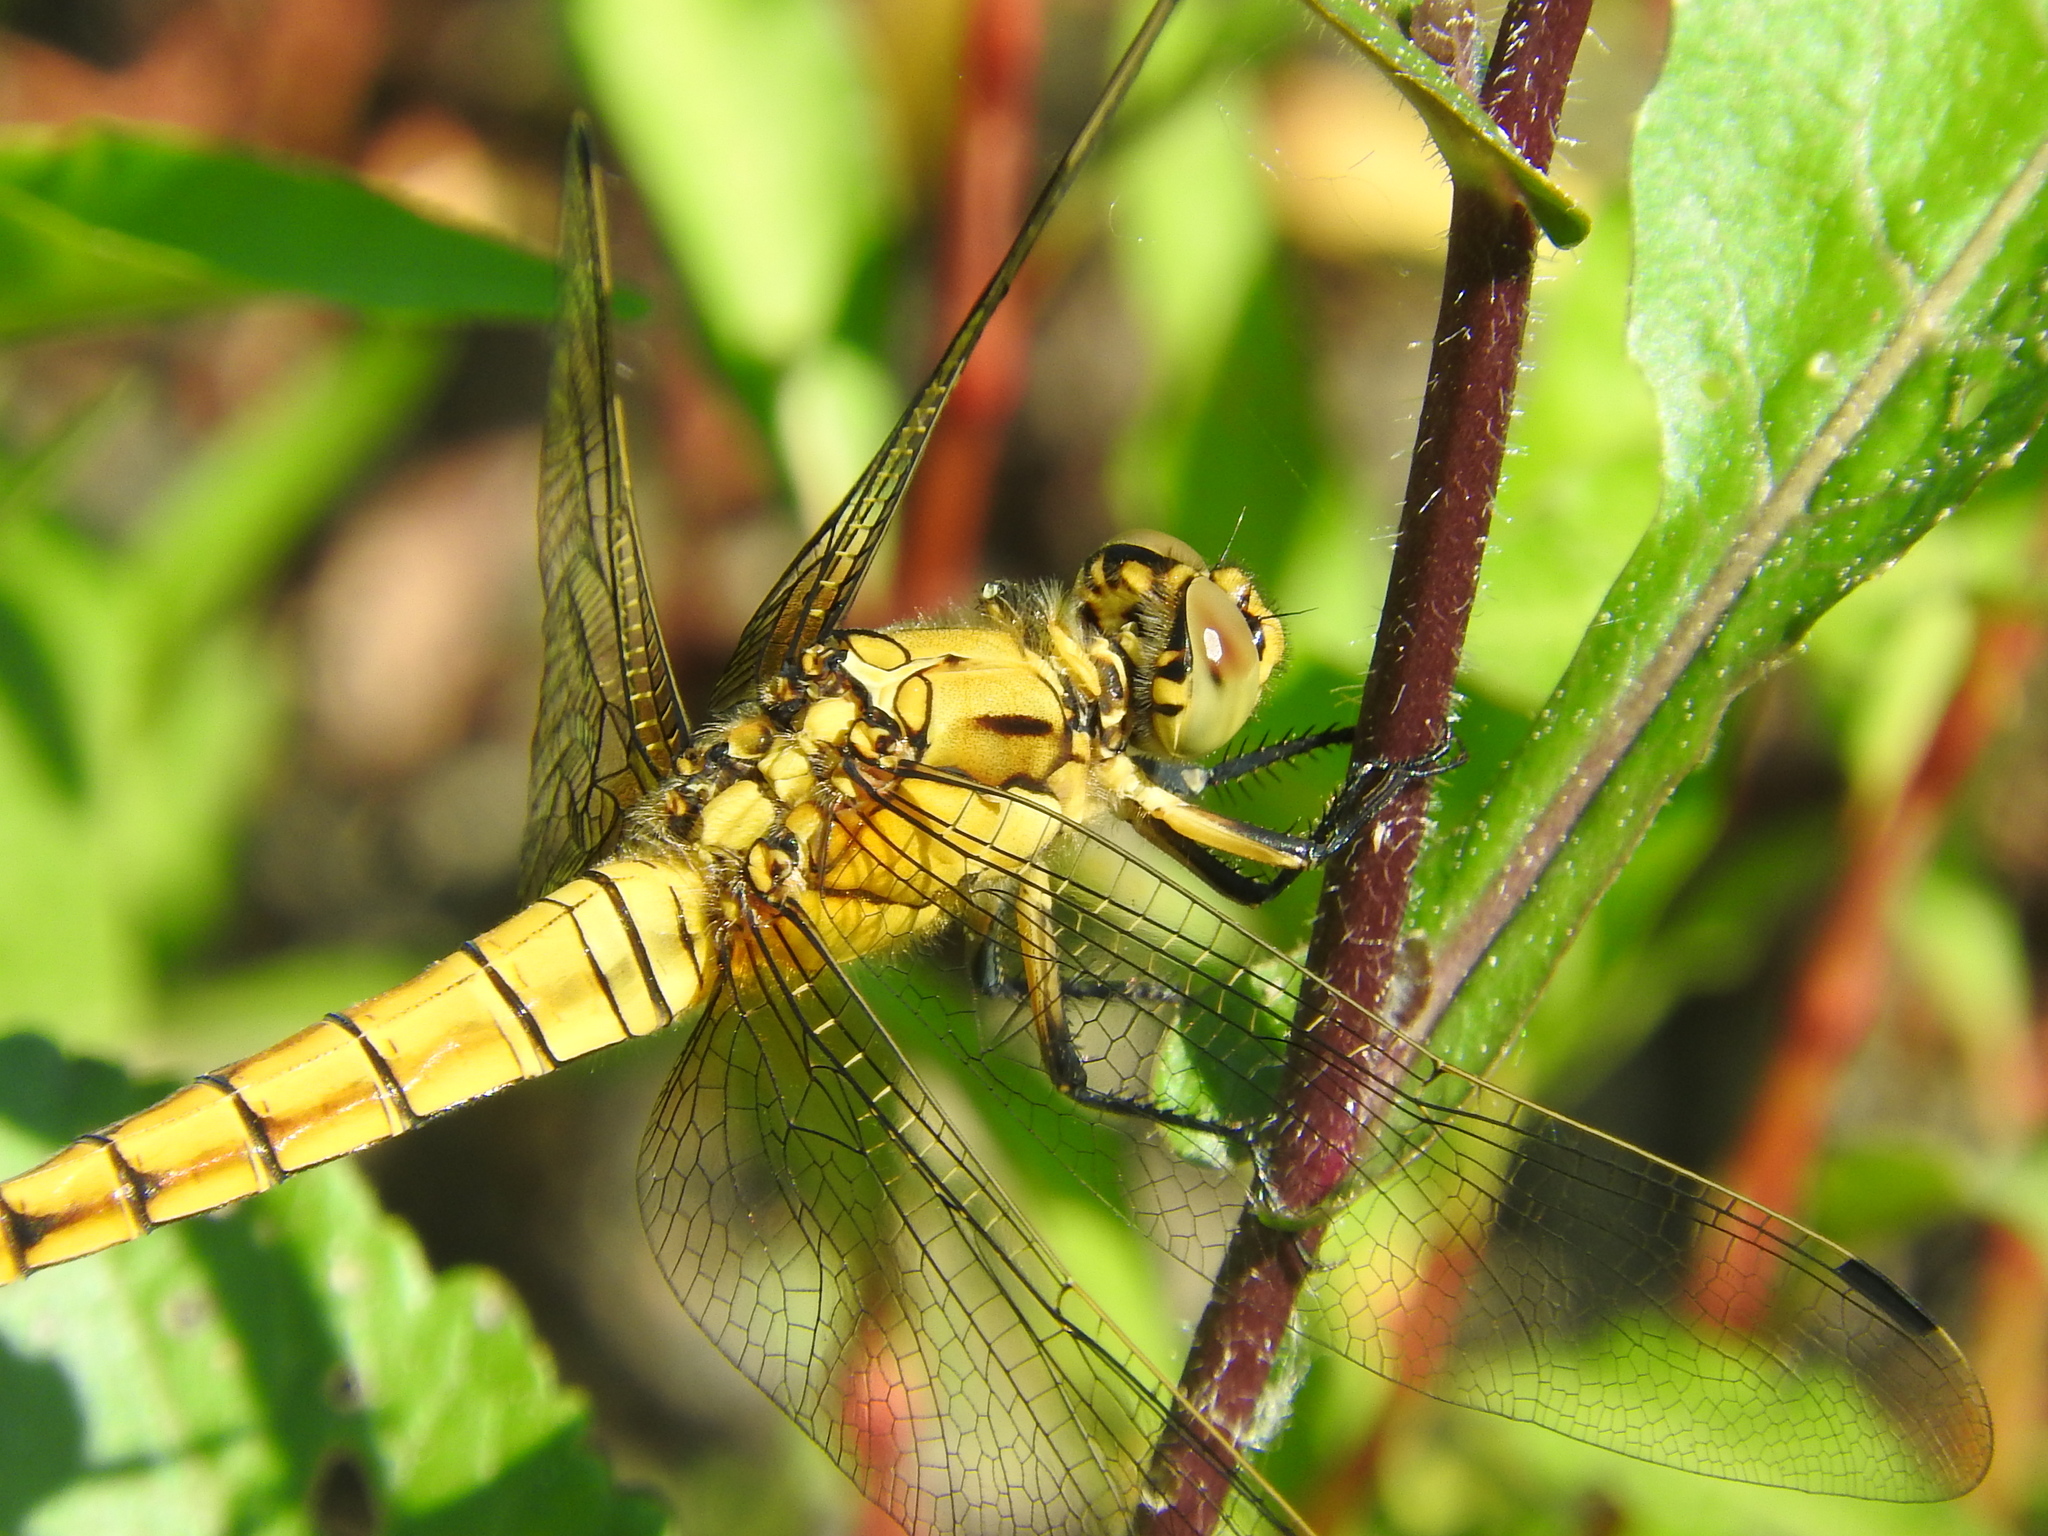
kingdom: Animalia
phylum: Arthropoda
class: Insecta
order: Odonata
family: Libellulidae
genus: Orthetrum
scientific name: Orthetrum cancellatum
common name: Black-tailed skimmer
